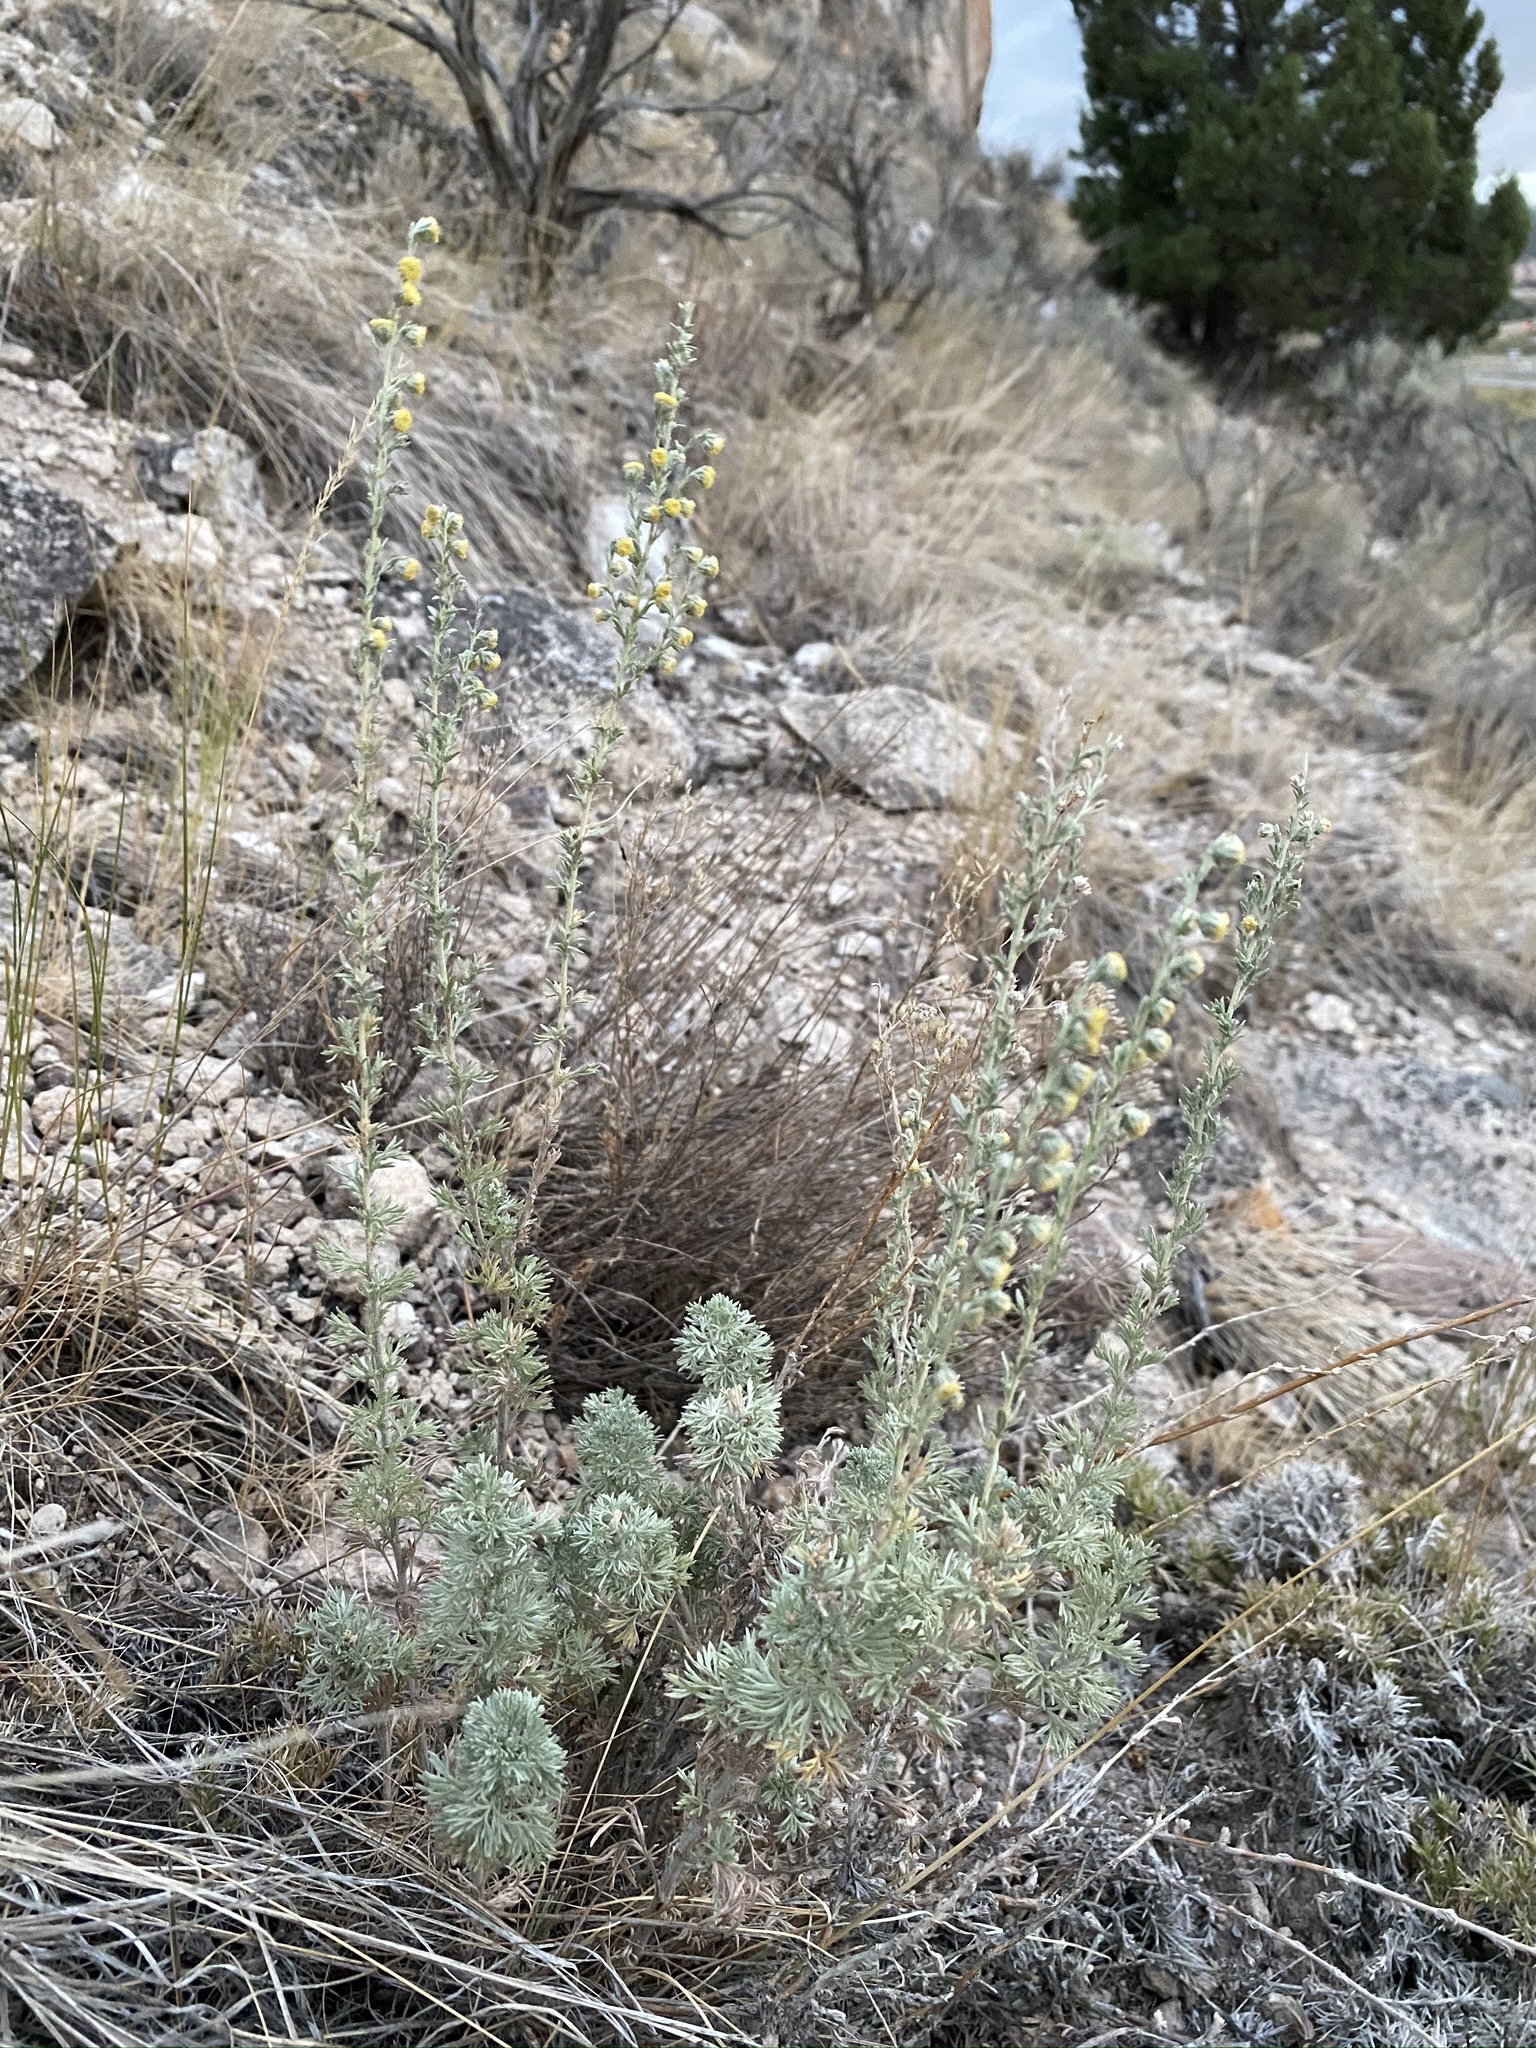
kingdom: Plantae
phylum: Tracheophyta
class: Magnoliopsida
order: Asterales
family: Asteraceae
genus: Artemisia
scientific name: Artemisia frigida
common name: Prairie sagewort
